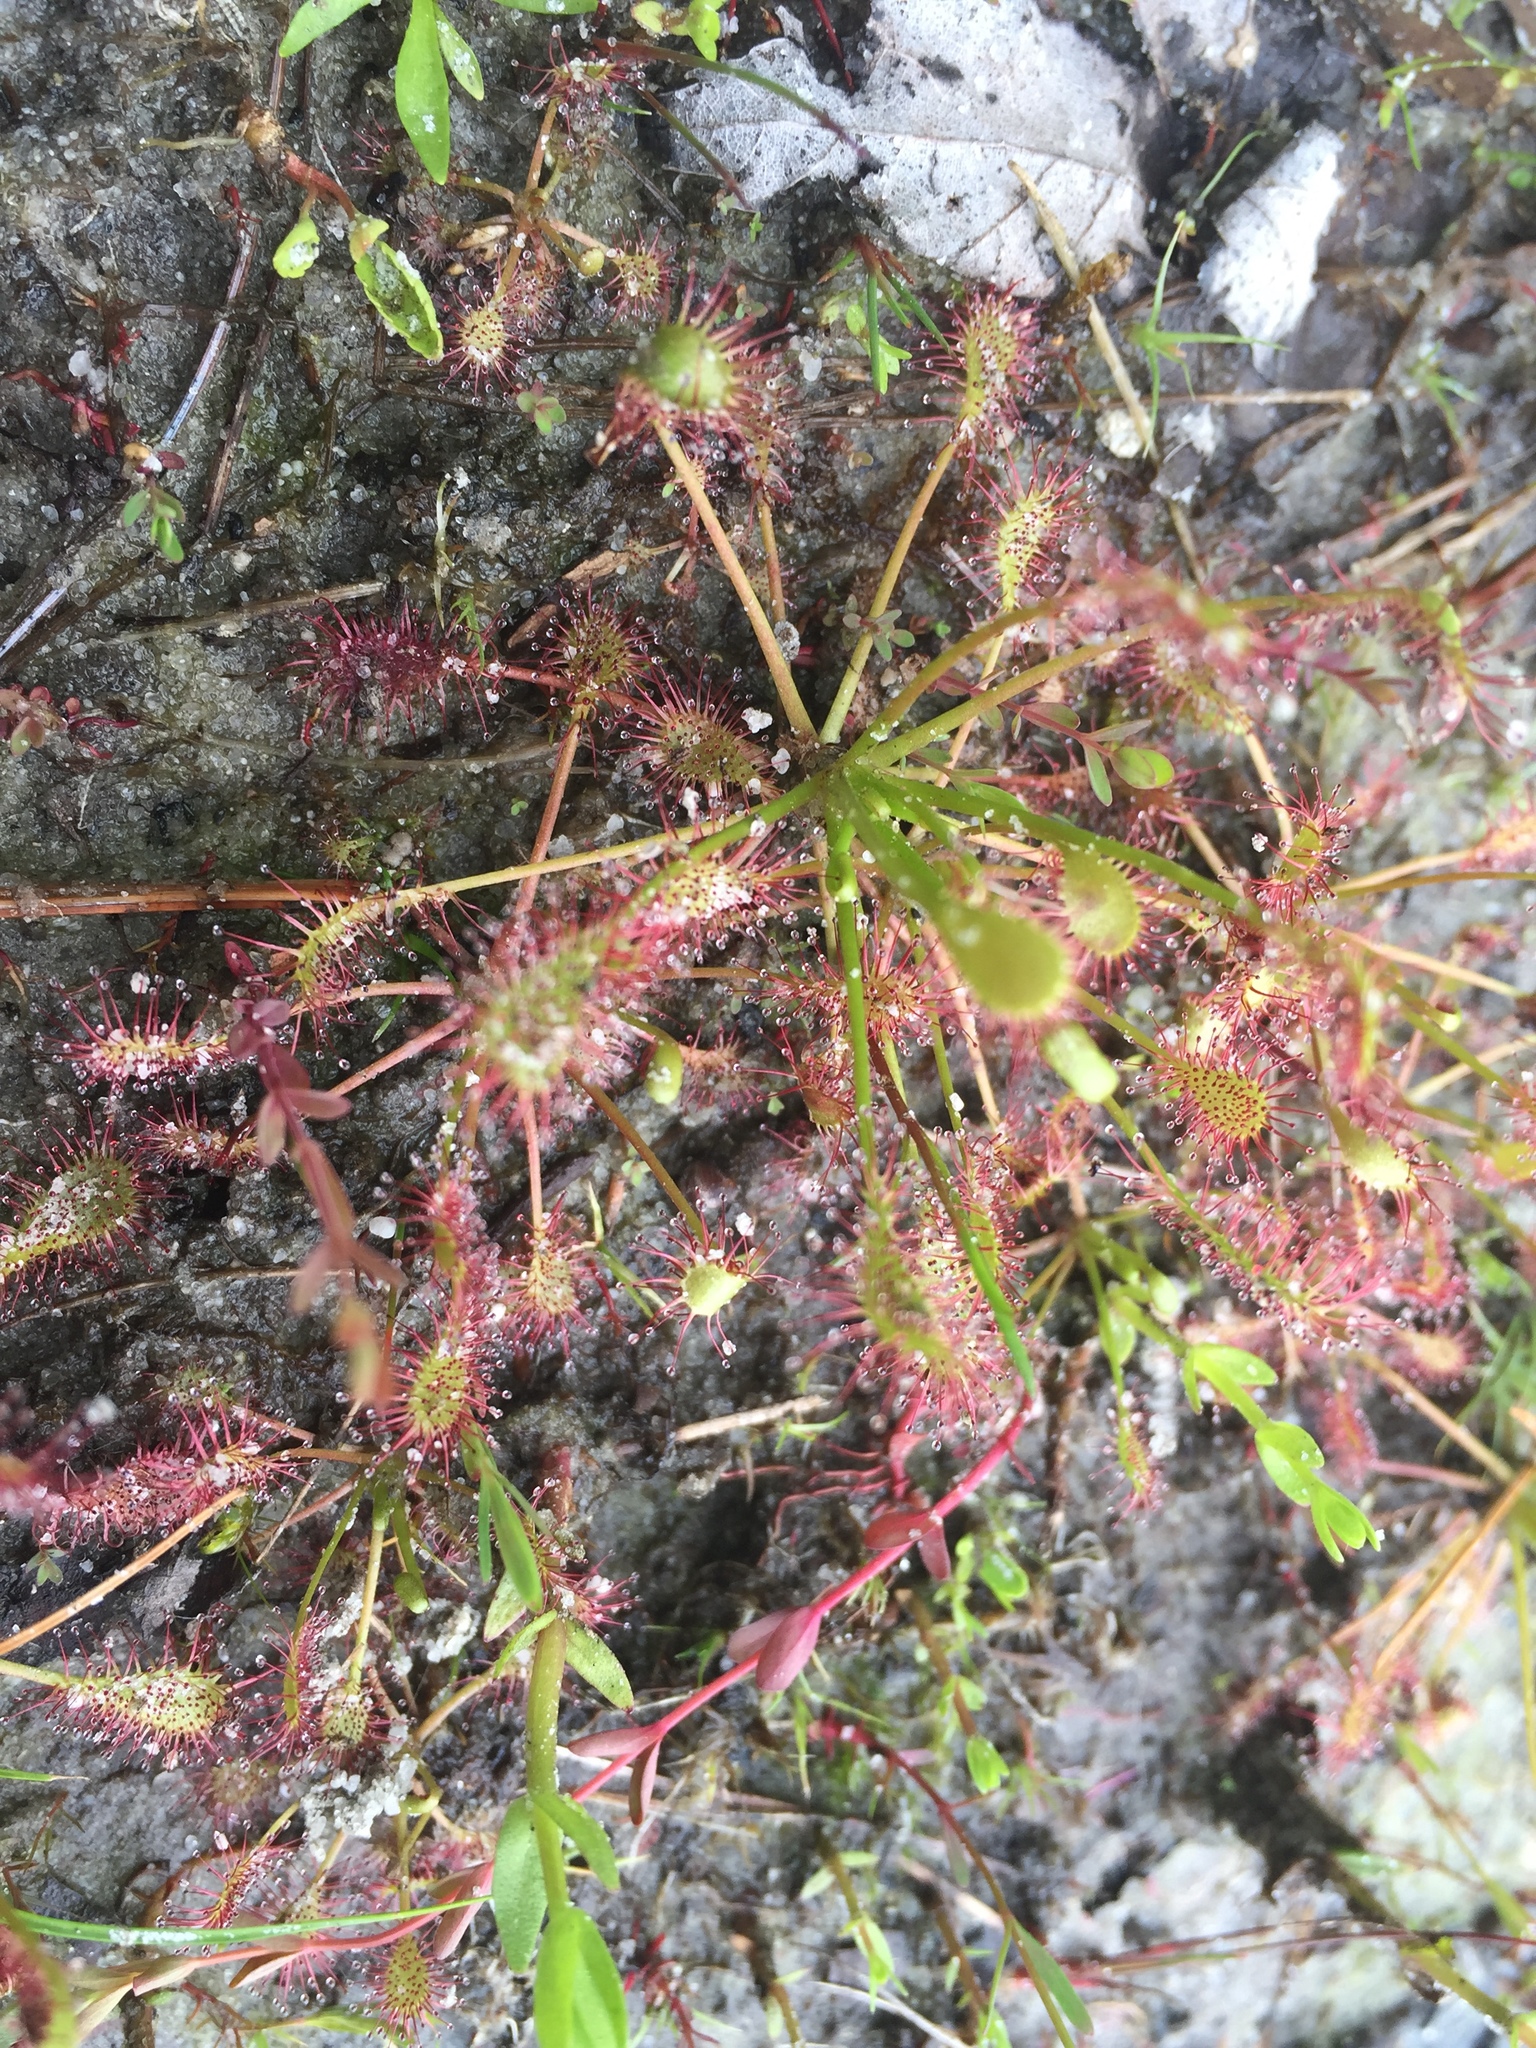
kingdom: Plantae
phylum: Tracheophyta
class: Magnoliopsida
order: Caryophyllales
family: Droseraceae
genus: Drosera
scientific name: Drosera intermedia
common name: Oblong-leaved sundew
